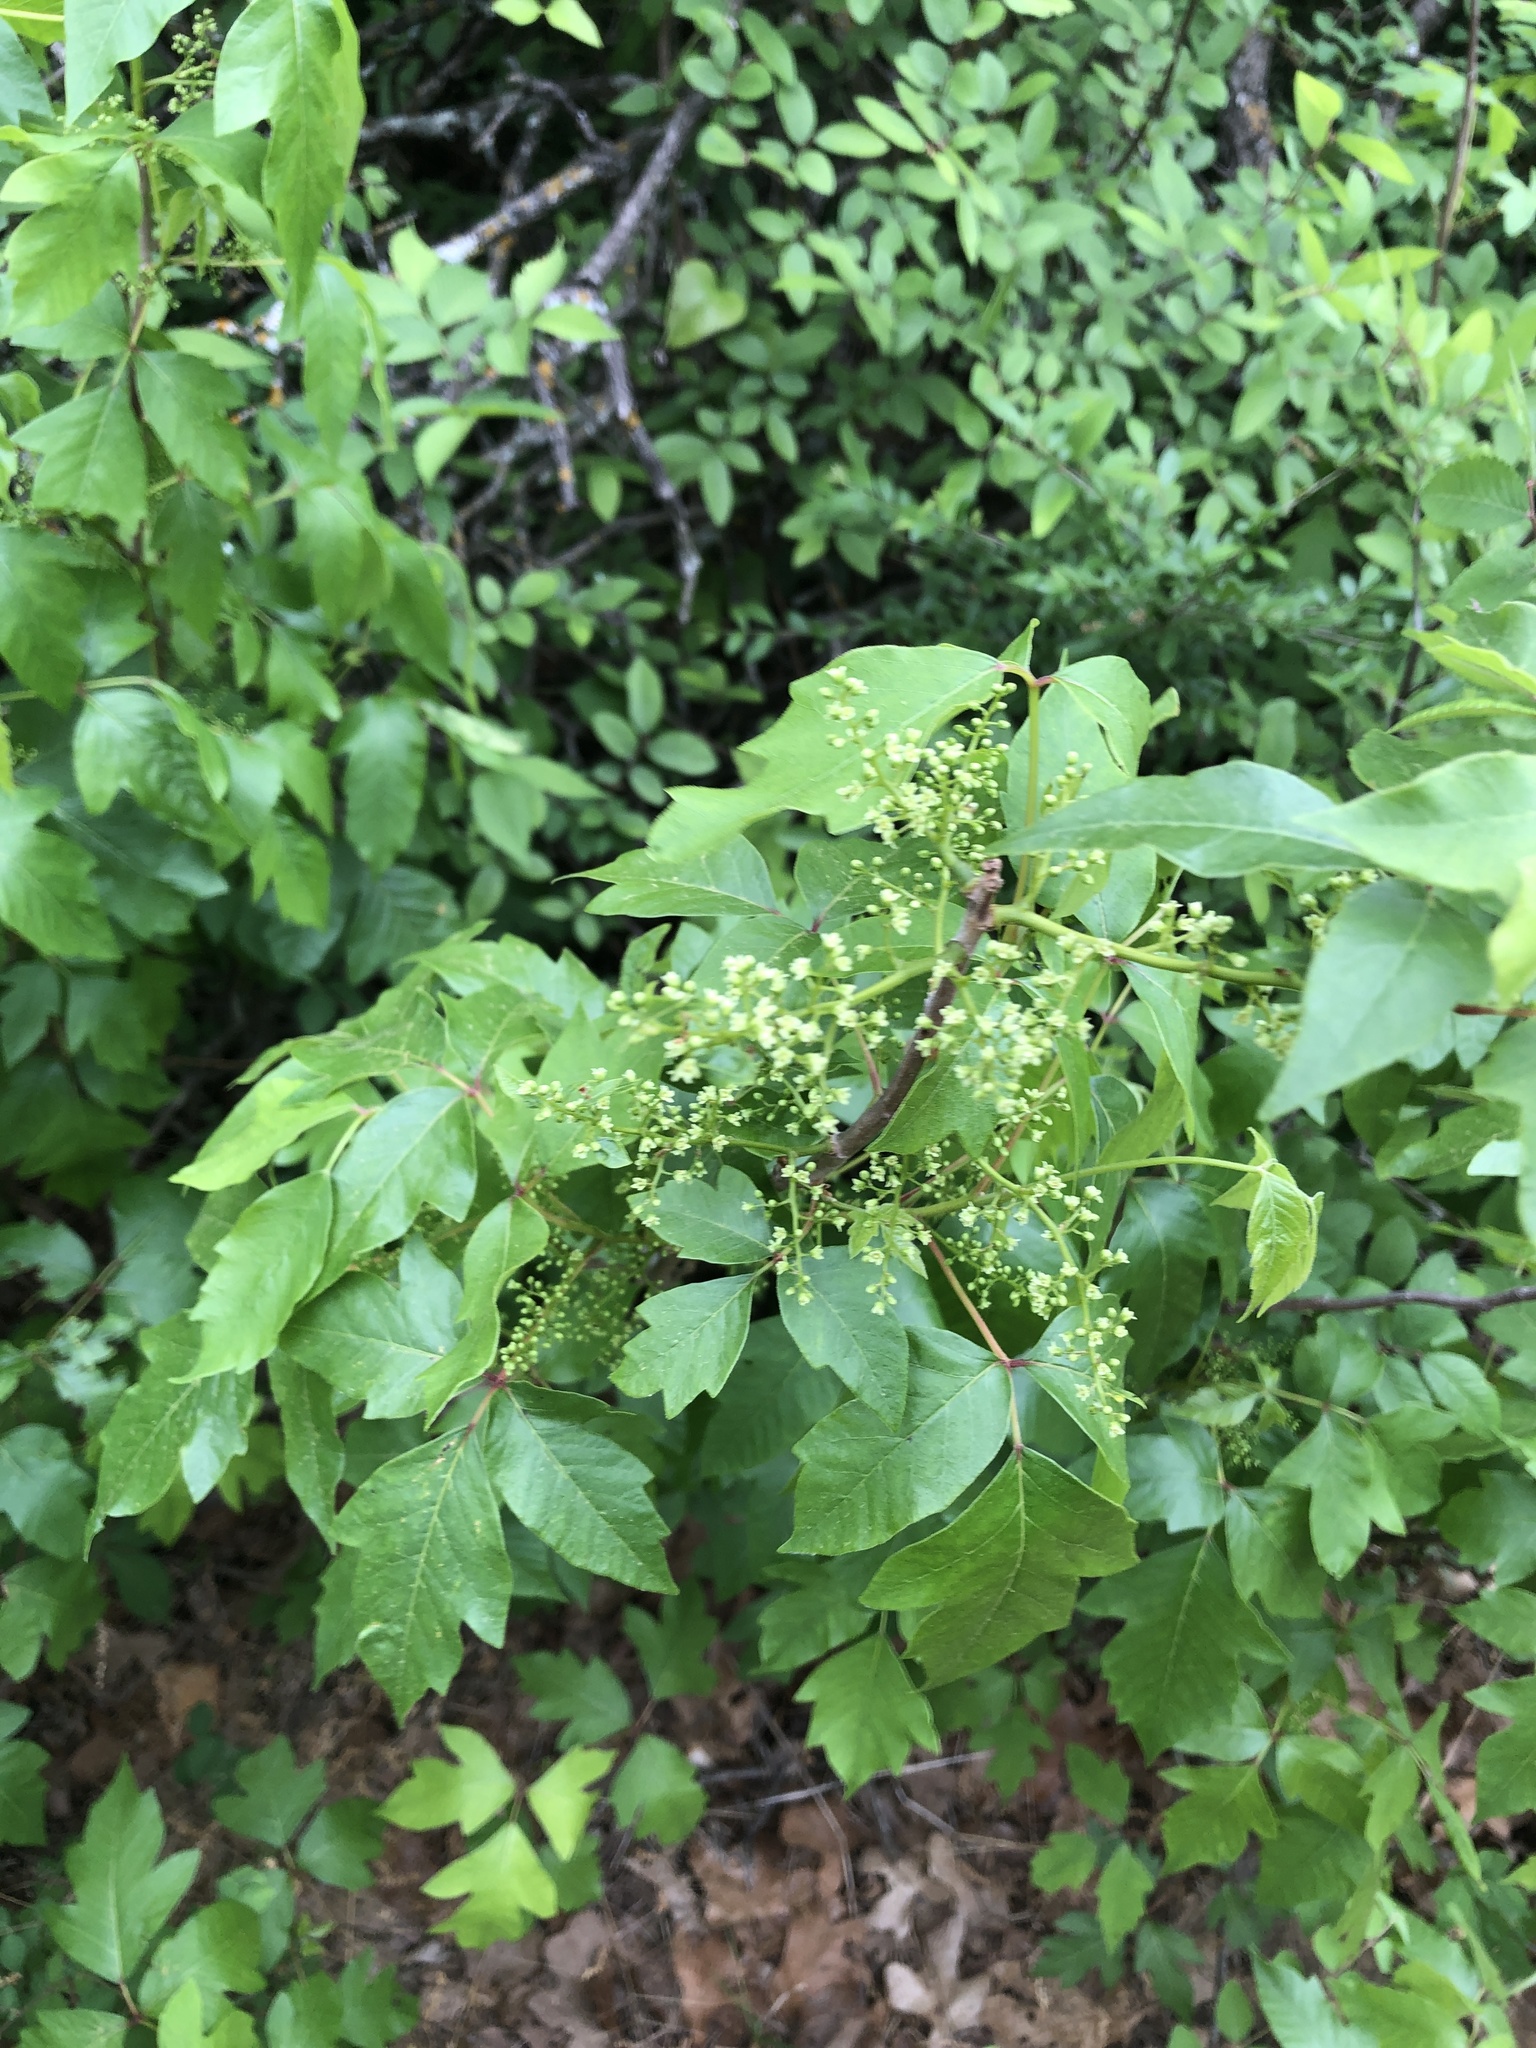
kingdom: Plantae
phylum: Tracheophyta
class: Magnoliopsida
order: Sapindales
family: Anacardiaceae
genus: Toxicodendron
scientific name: Toxicodendron radicans
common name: Poison ivy
